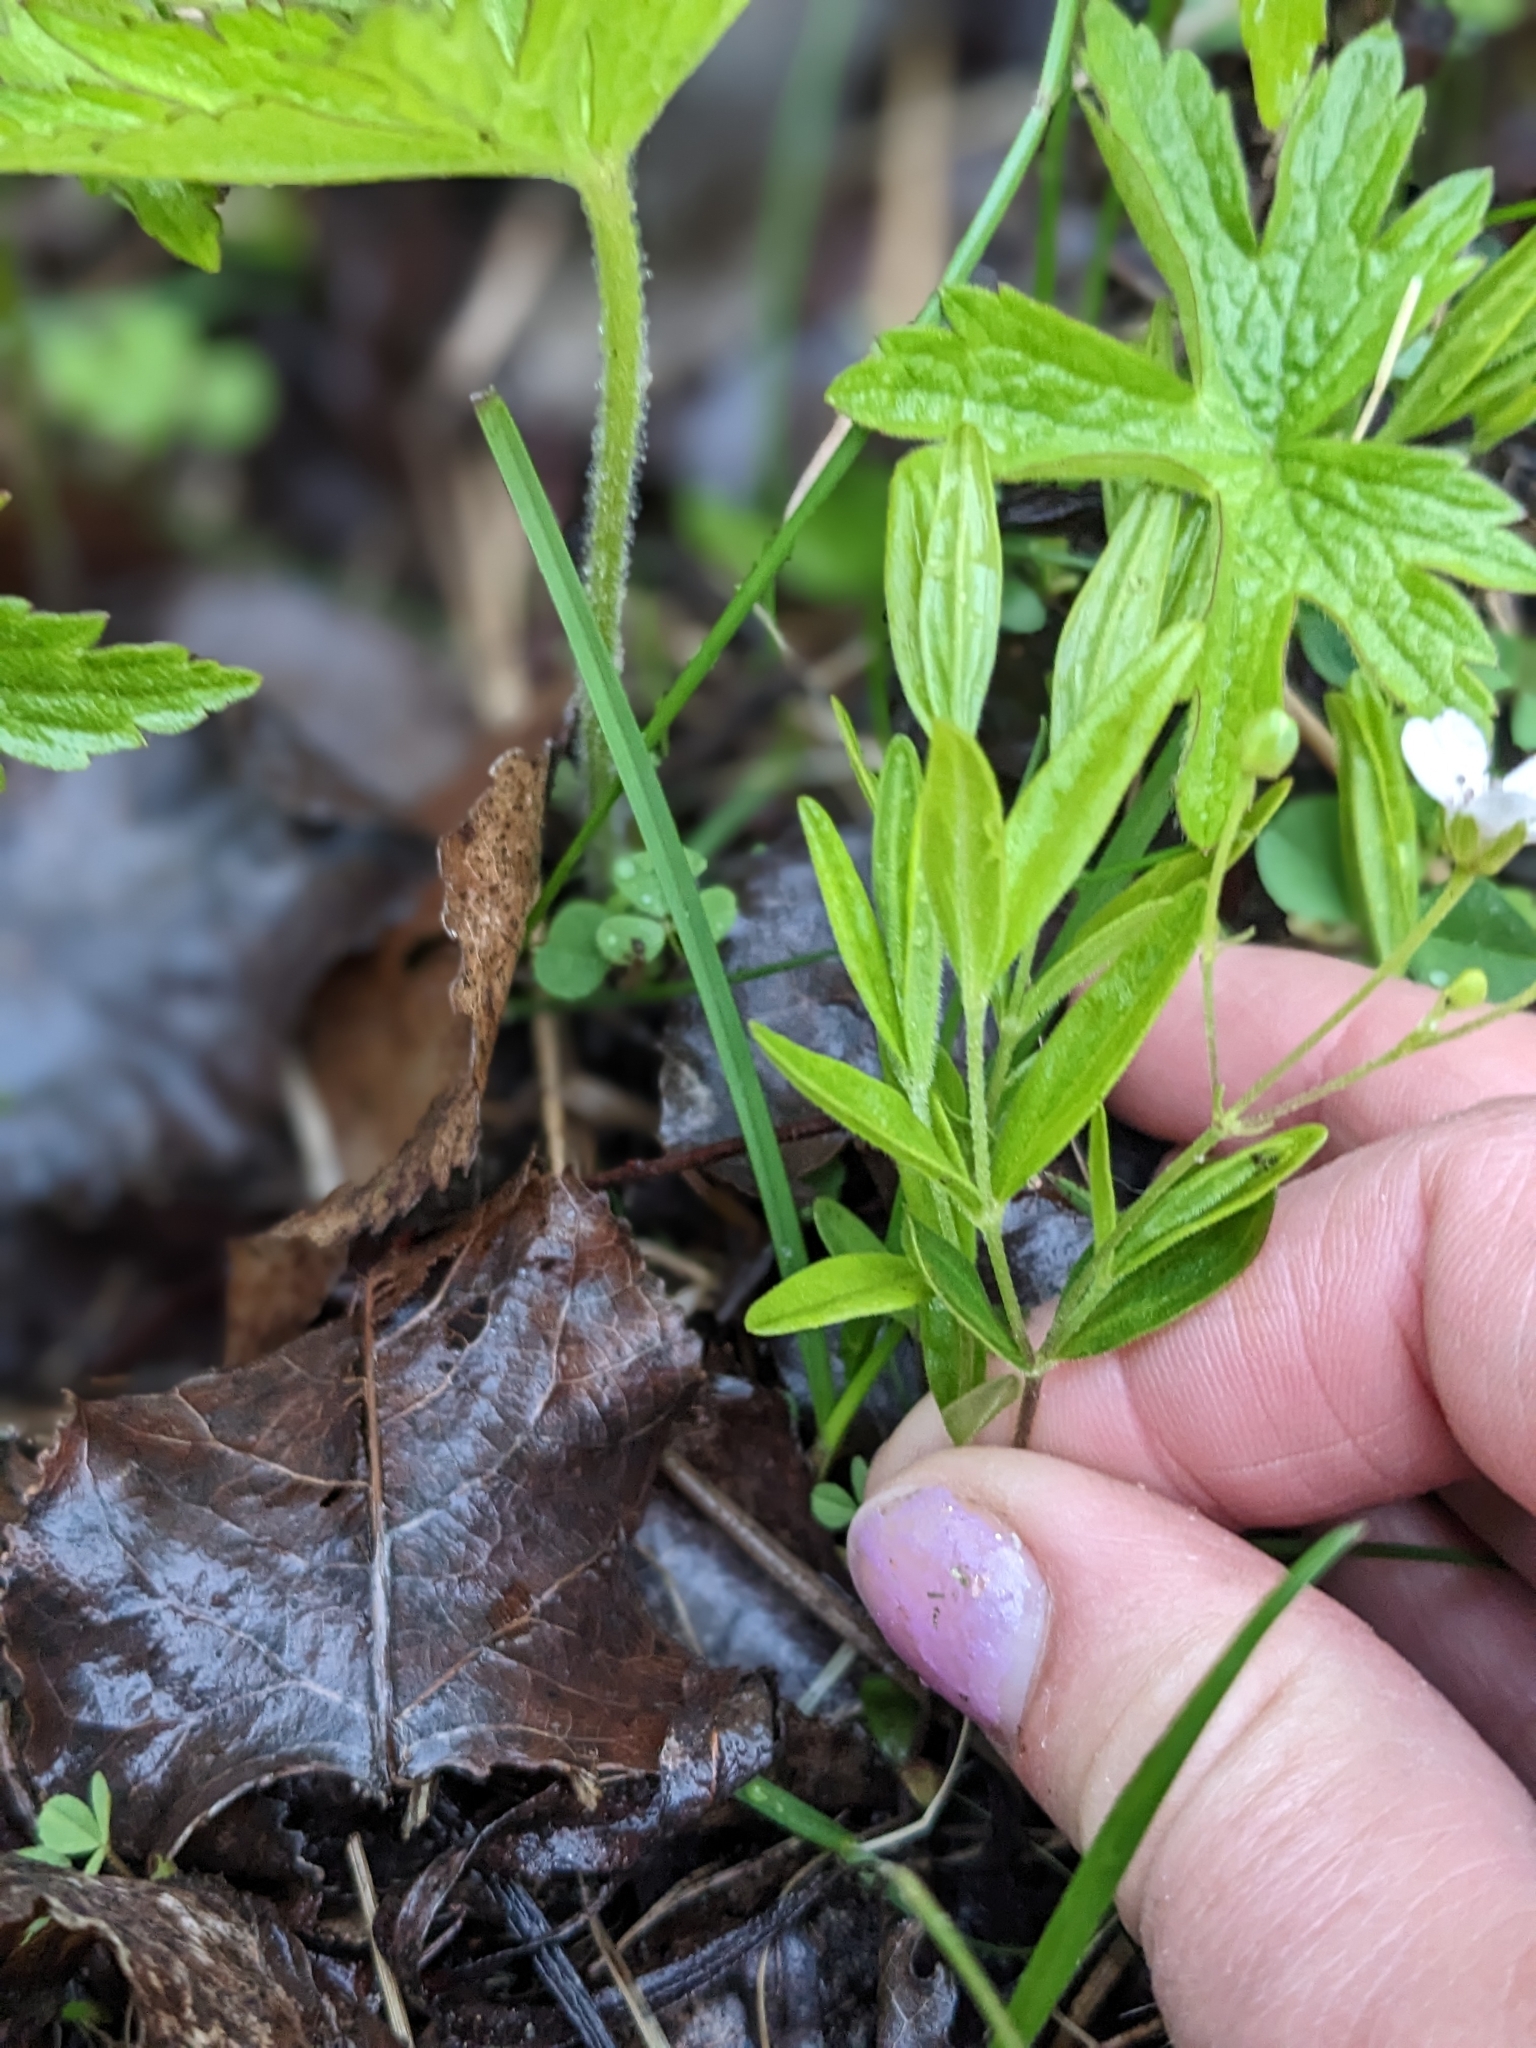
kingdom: Plantae
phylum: Tracheophyta
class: Magnoliopsida
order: Caryophyllales
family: Caryophyllaceae
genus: Moehringia
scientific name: Moehringia lateriflora
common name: Blunt-leaved sandwort
